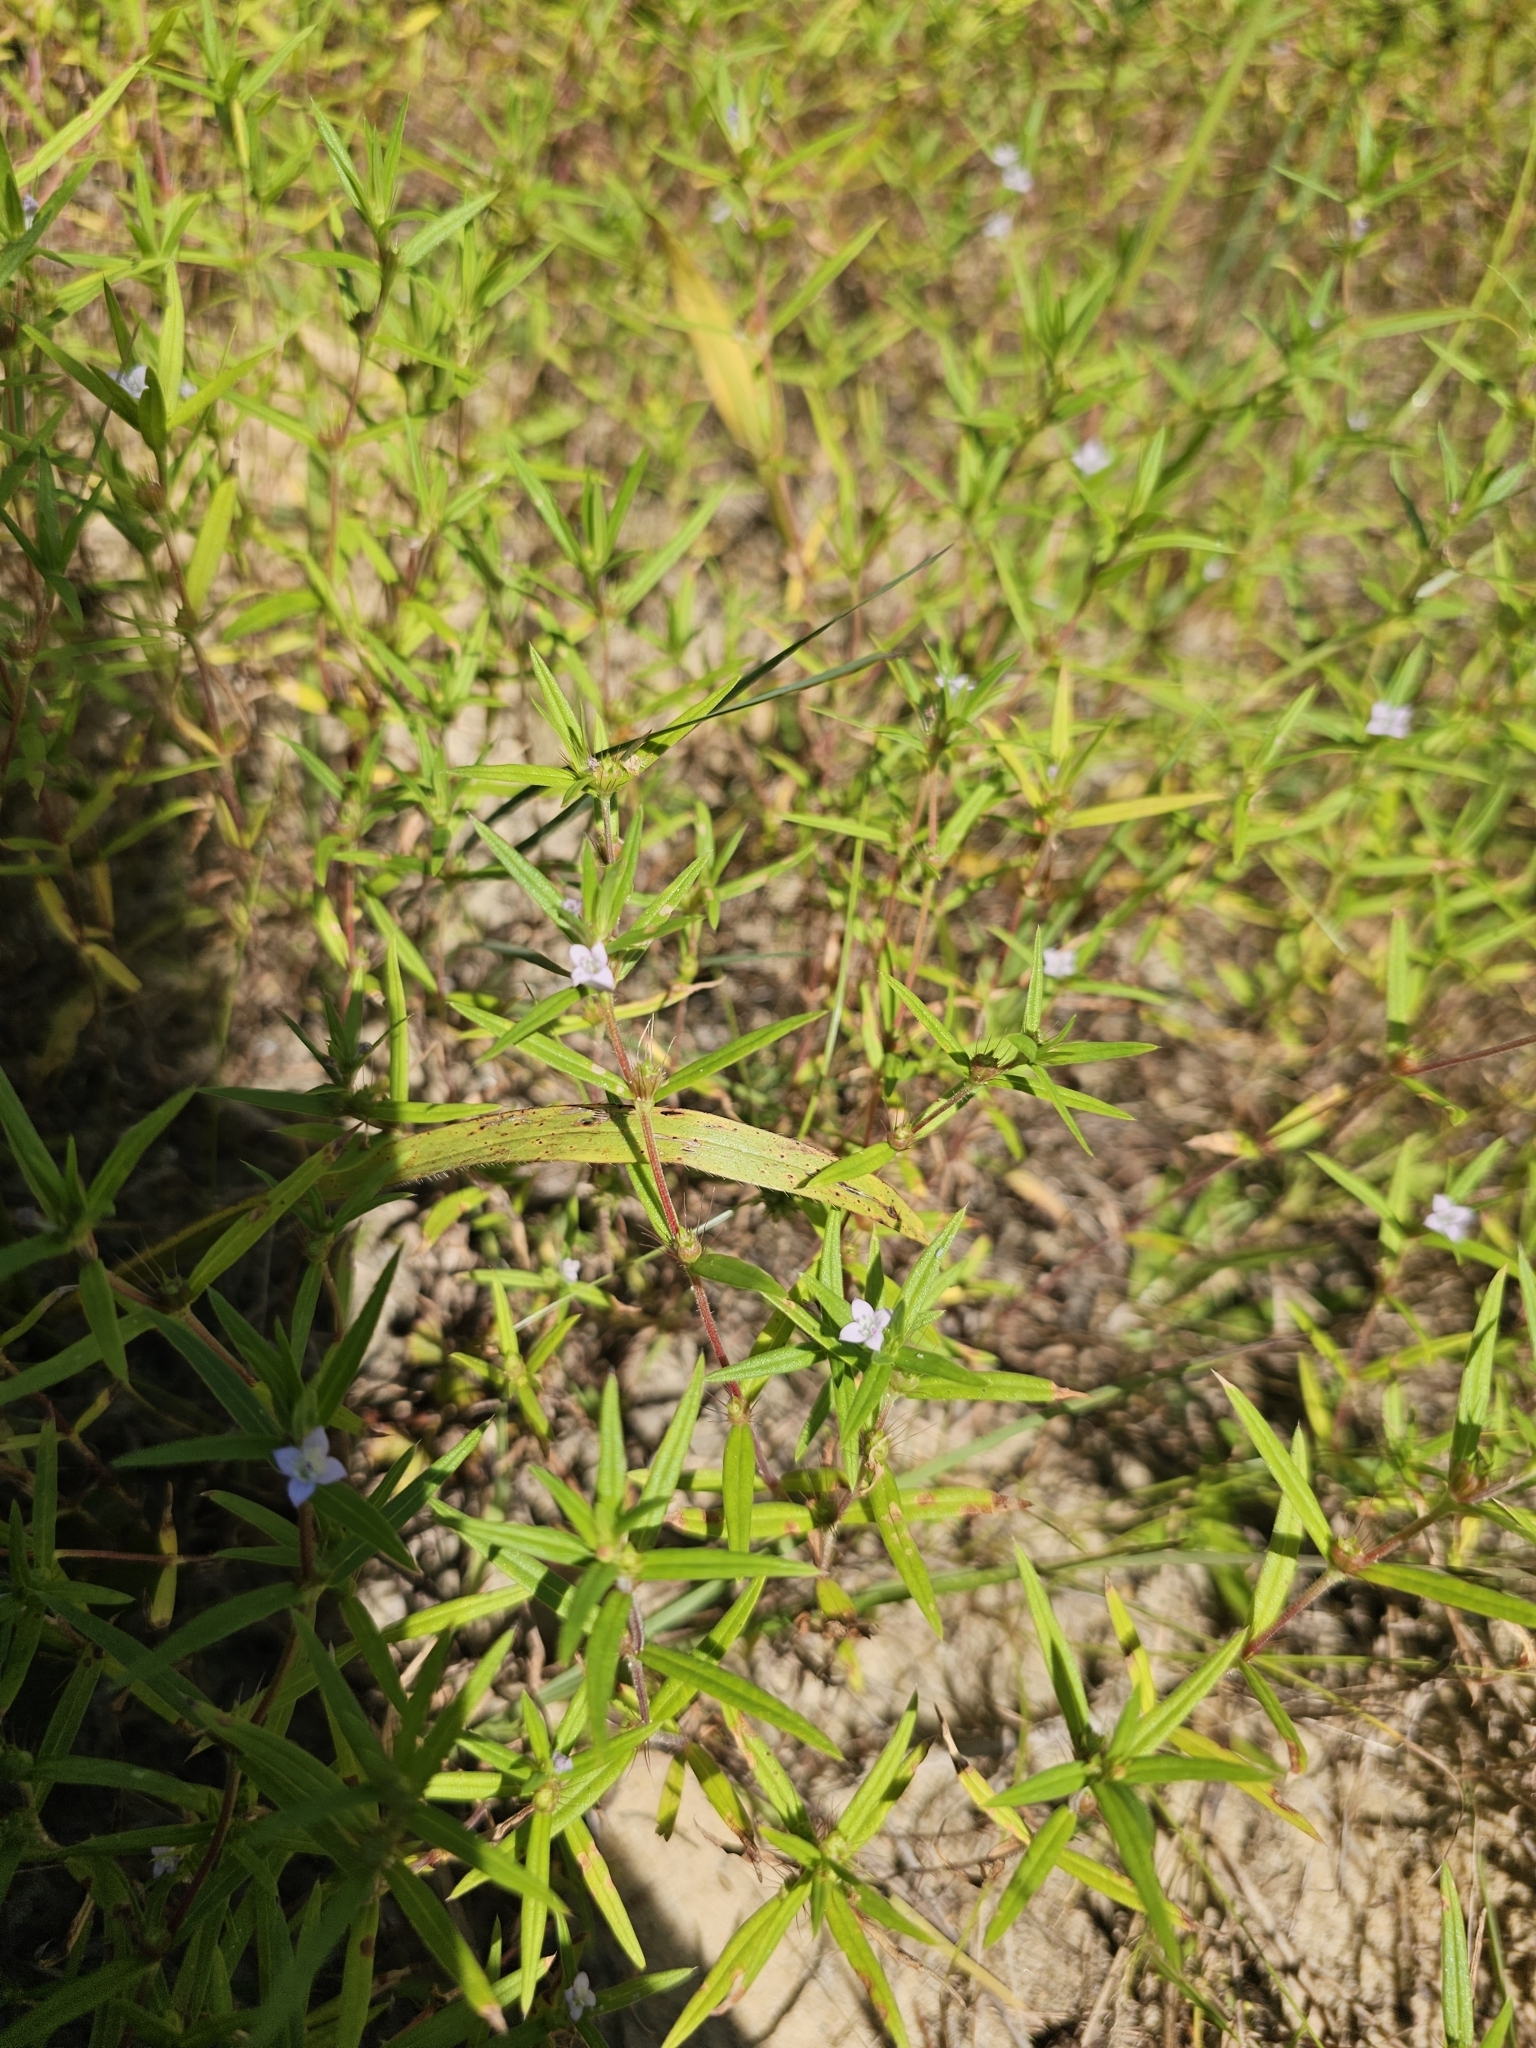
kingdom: Plantae
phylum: Tracheophyta
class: Magnoliopsida
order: Gentianales
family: Rubiaceae
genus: Hexasepalum
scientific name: Hexasepalum teres
